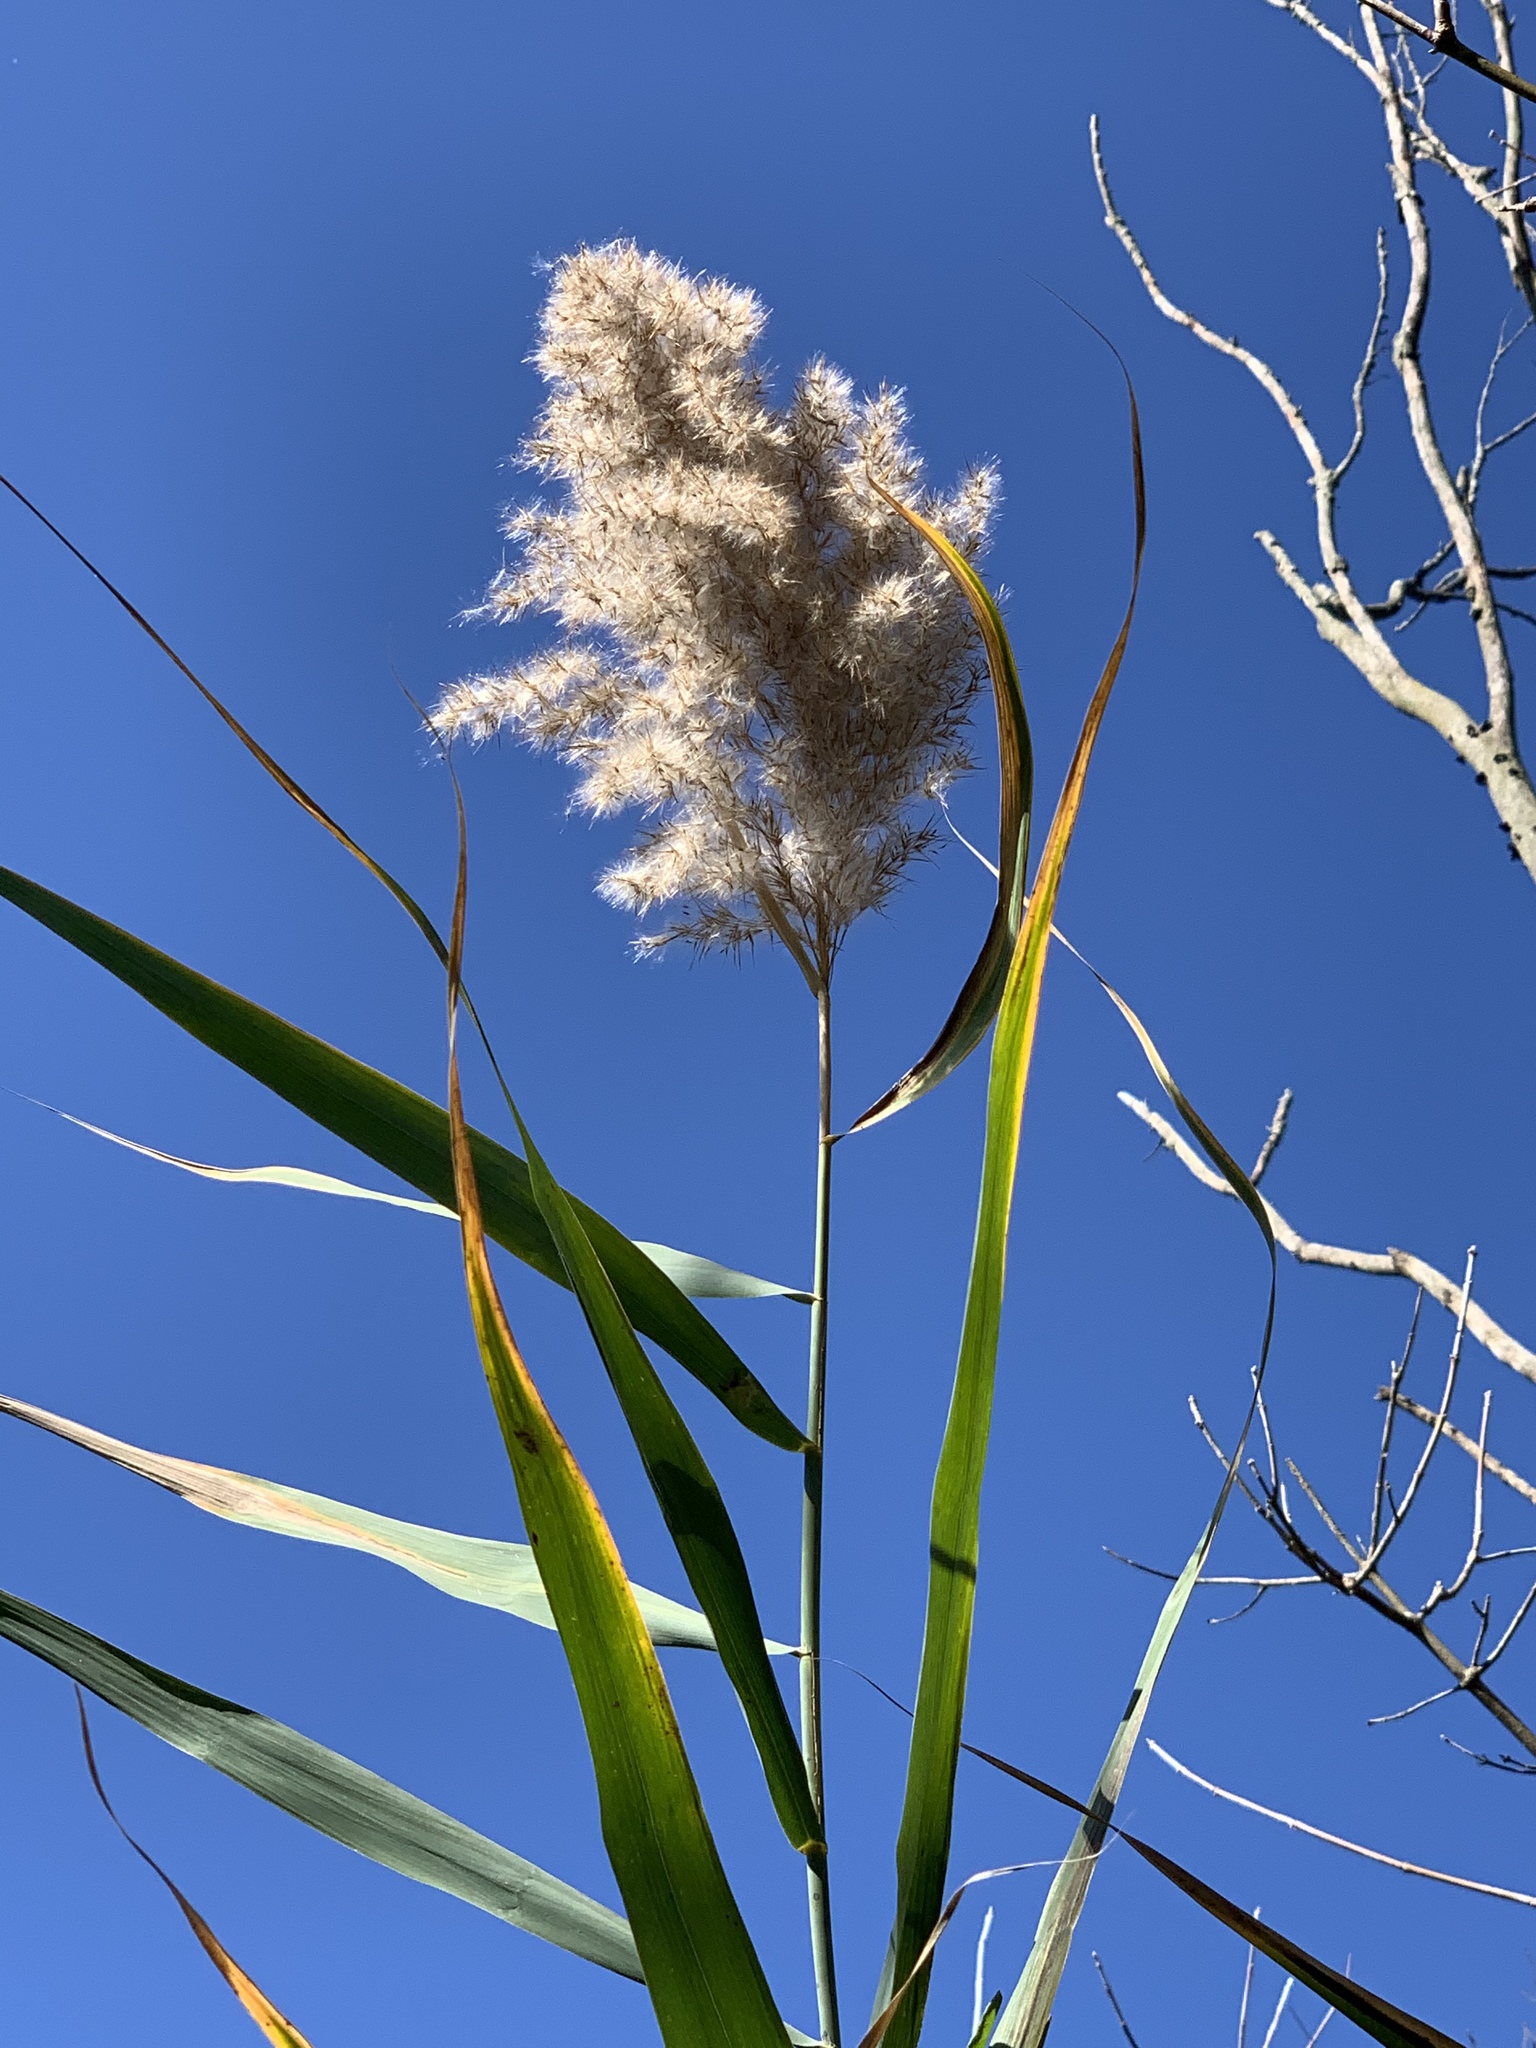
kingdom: Plantae
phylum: Tracheophyta
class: Liliopsida
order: Poales
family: Poaceae
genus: Phragmites
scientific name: Phragmites australis
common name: Common reed
